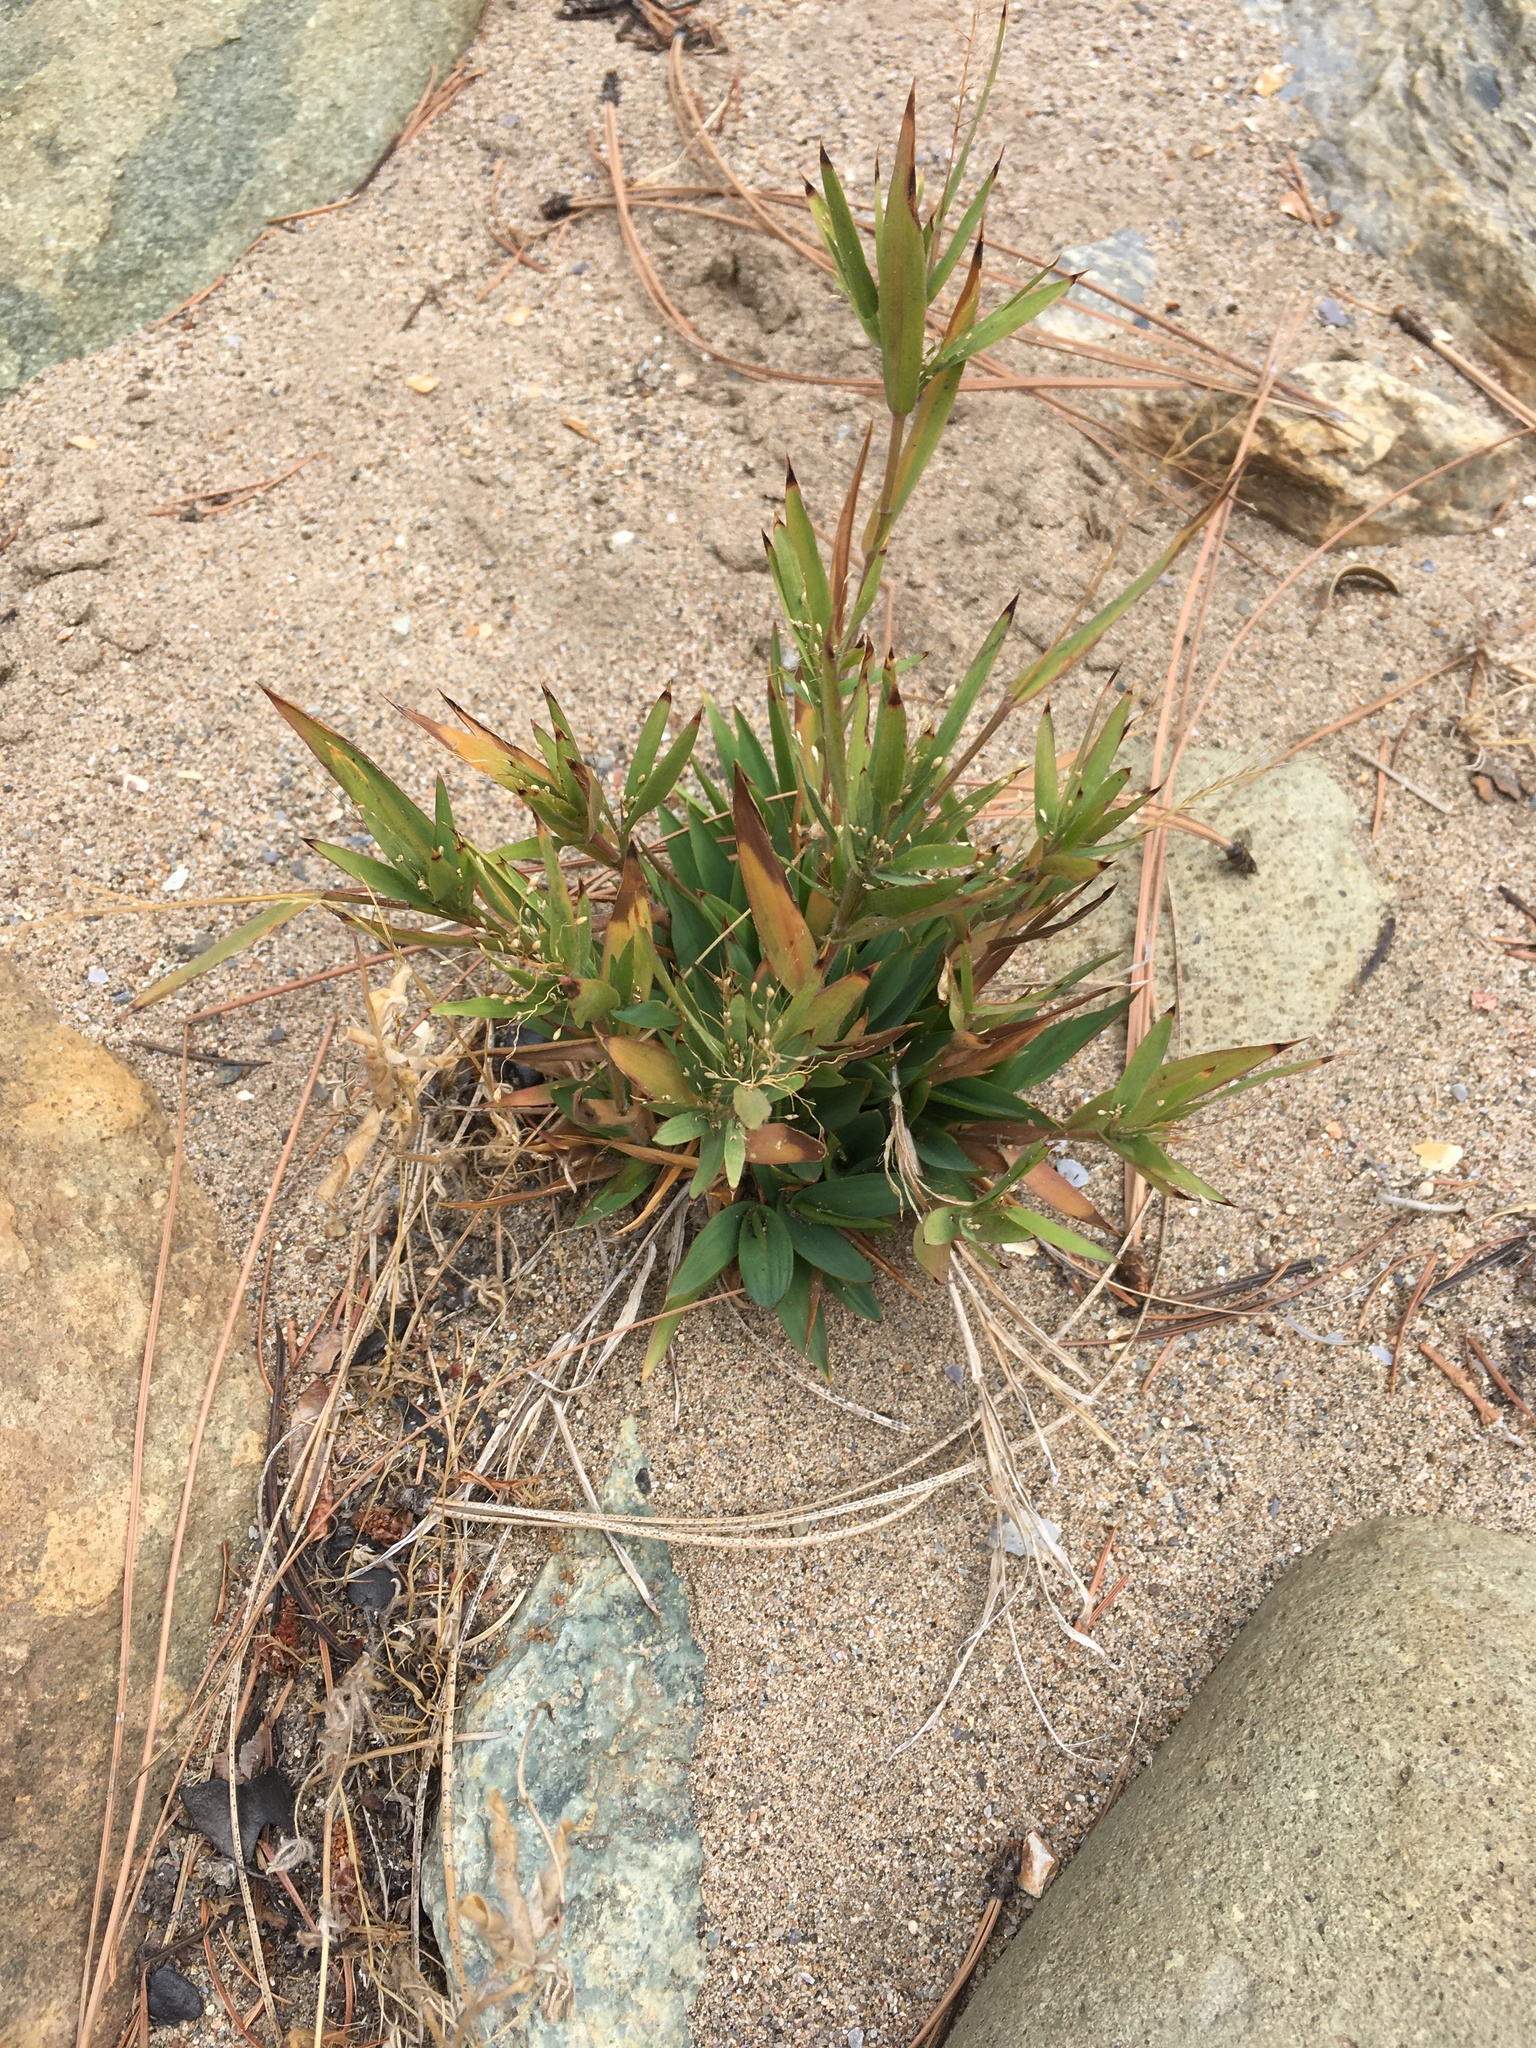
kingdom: Plantae
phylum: Tracheophyta
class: Liliopsida
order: Poales
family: Poaceae
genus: Dichanthelium
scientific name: Dichanthelium acuminatum
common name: Hairy panic grass
